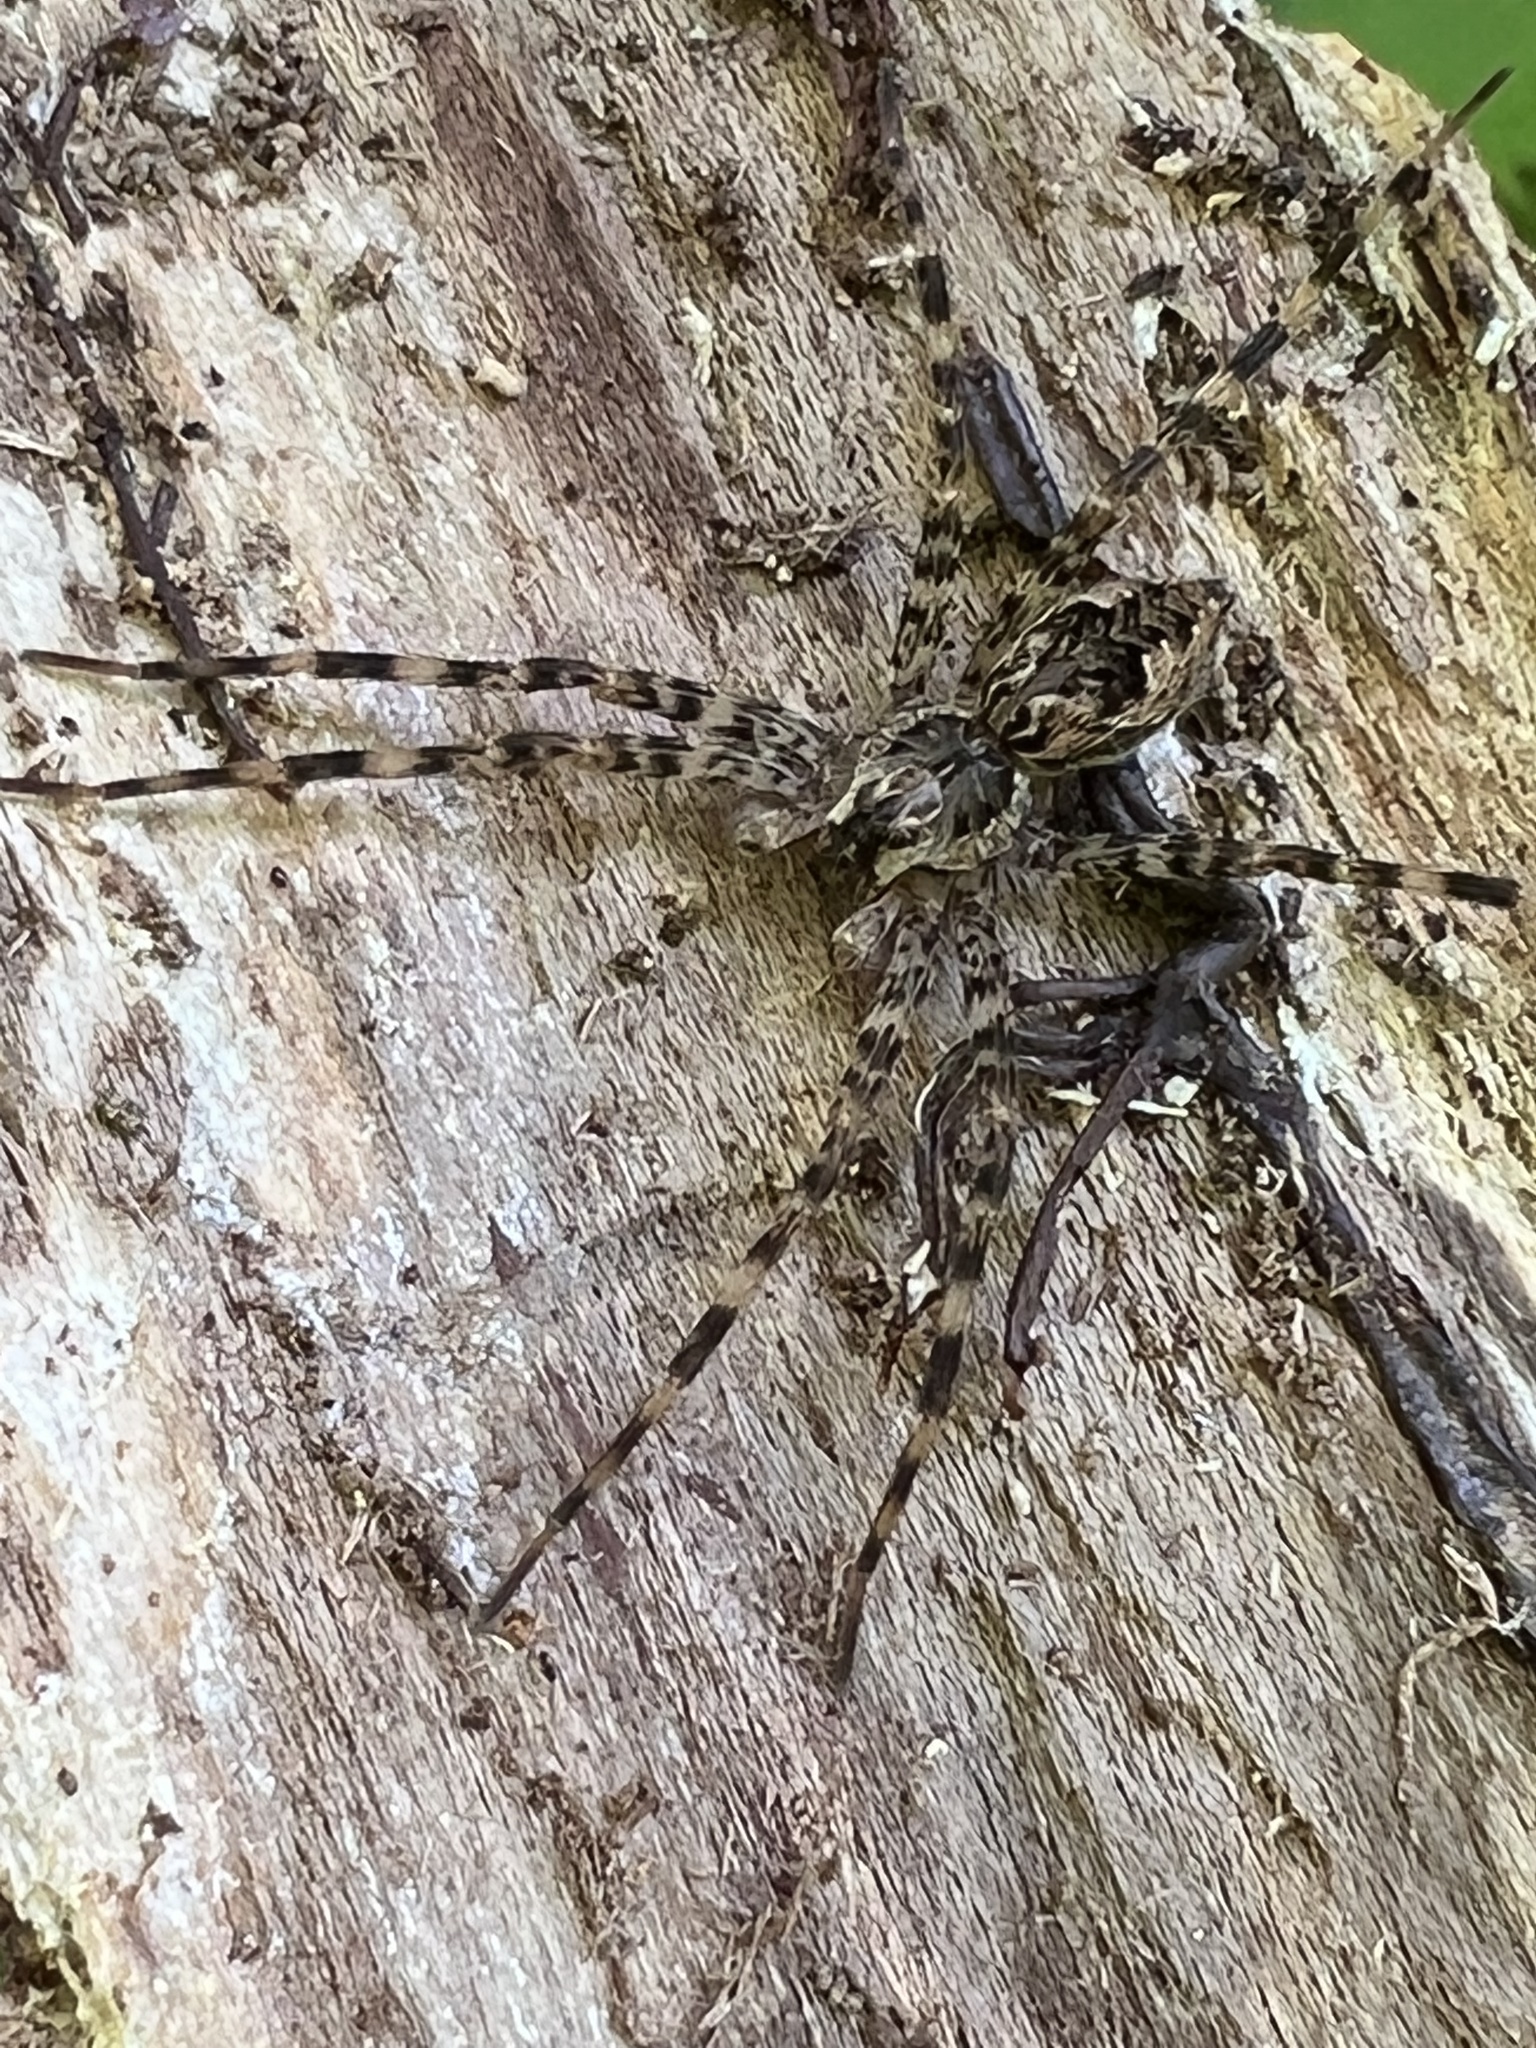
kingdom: Animalia
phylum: Arthropoda
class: Arachnida
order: Araneae
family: Pisauridae
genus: Dolomedes
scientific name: Dolomedes tenebrosus
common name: Dark fishing spider
